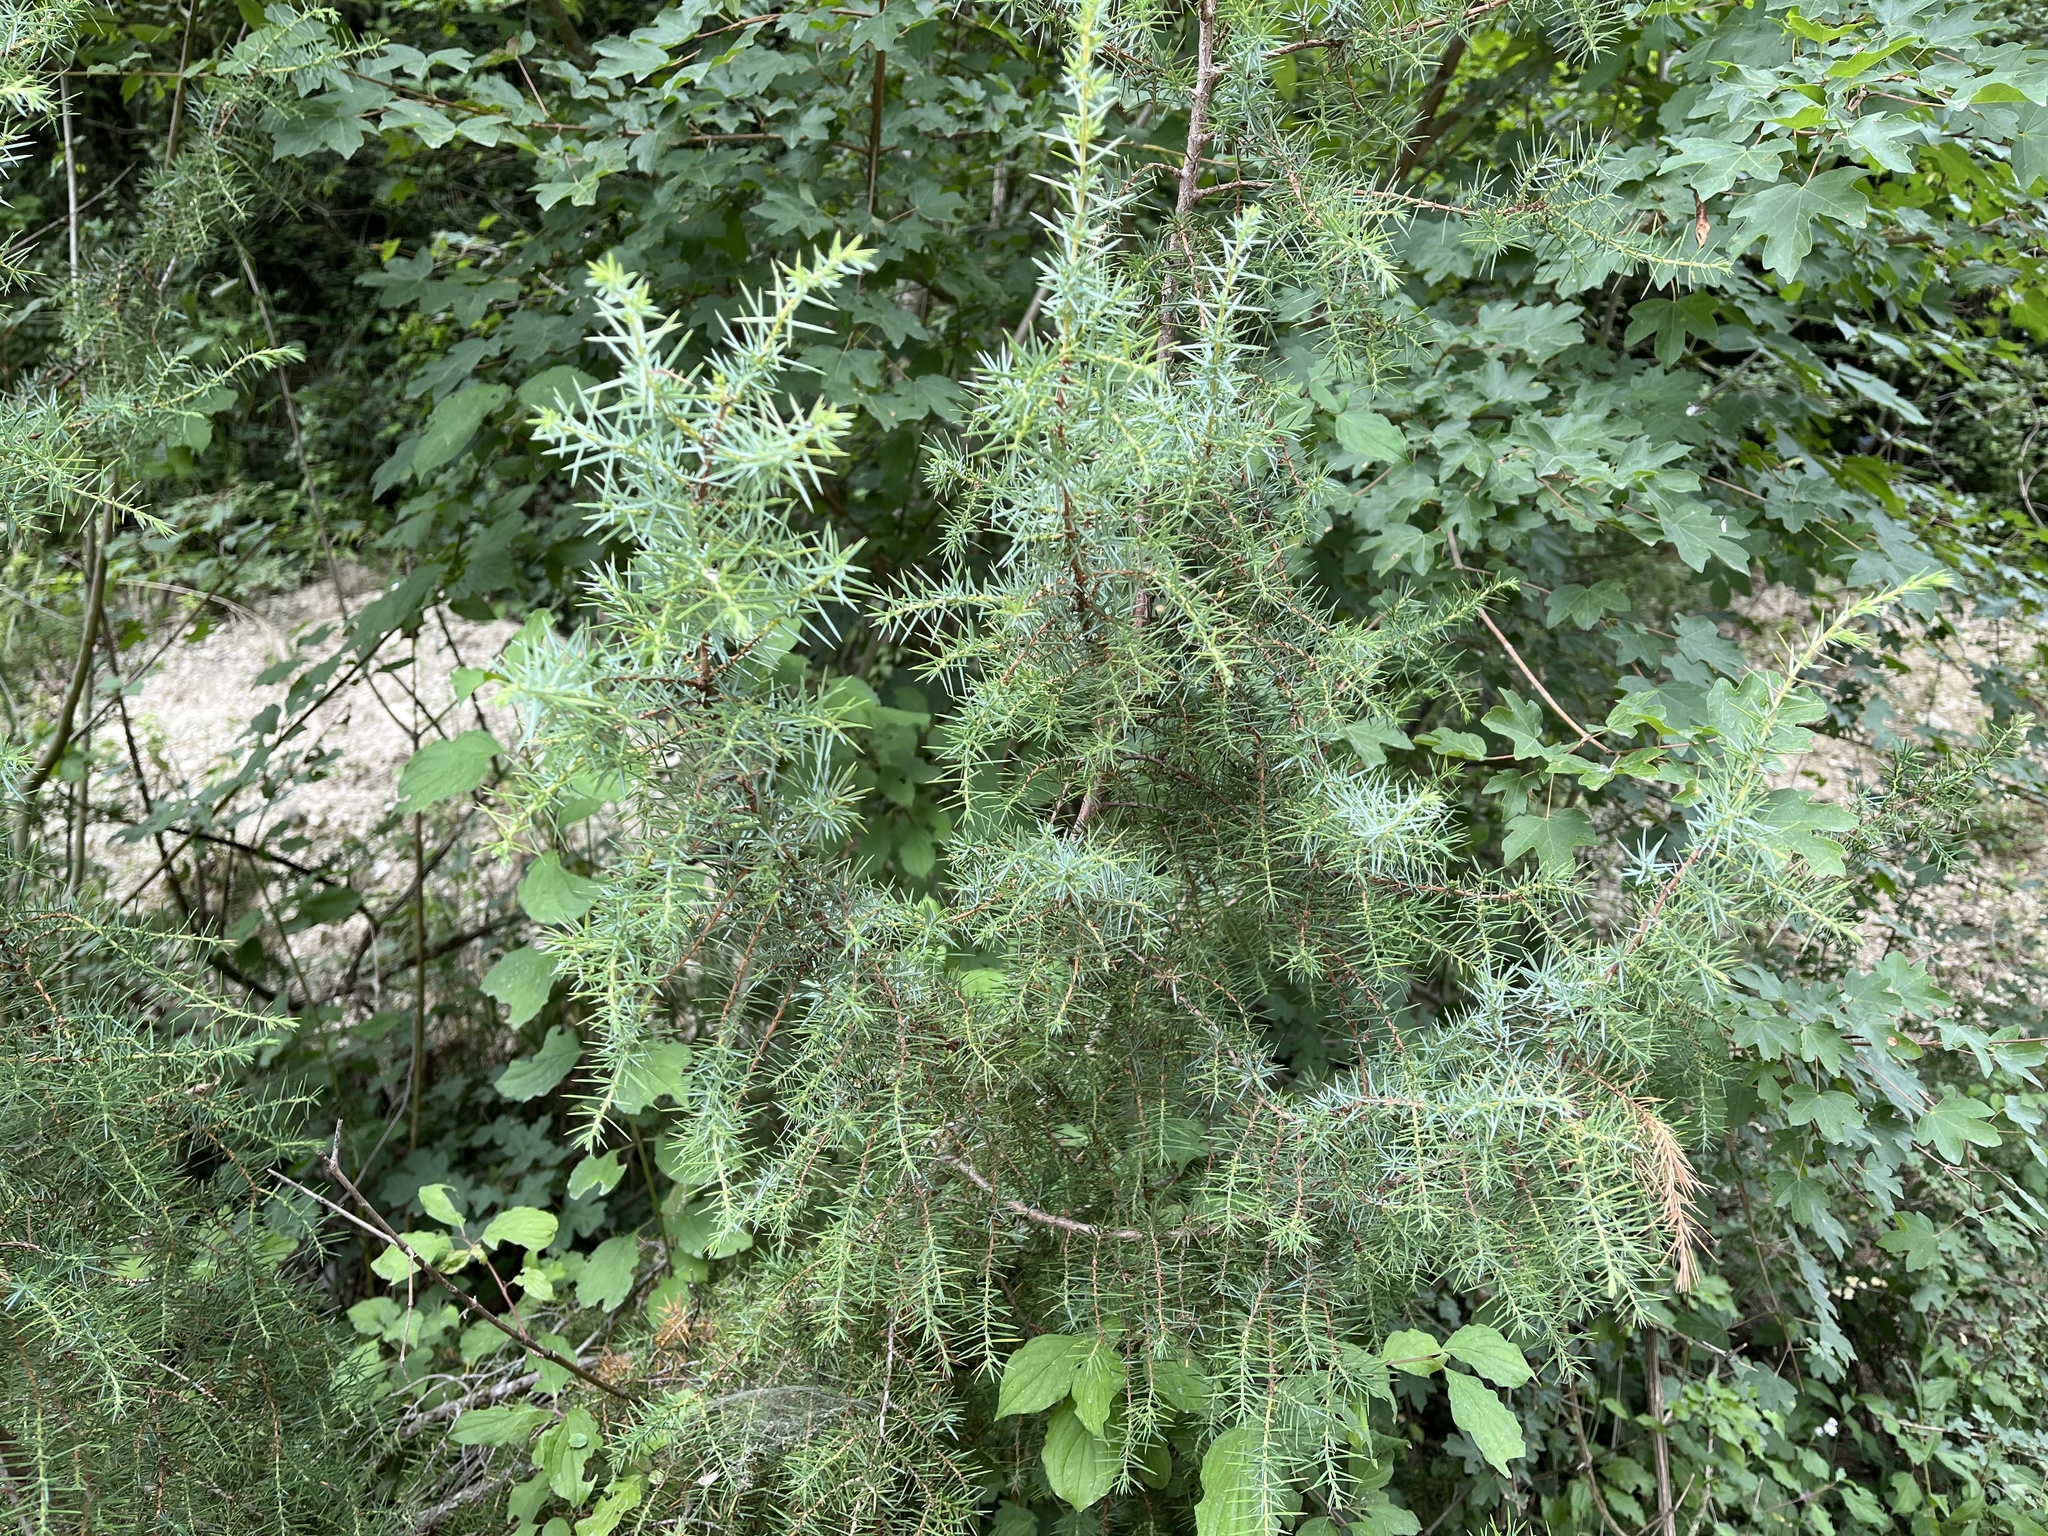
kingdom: Plantae
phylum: Tracheophyta
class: Pinopsida
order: Pinales
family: Cupressaceae
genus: Juniperus
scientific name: Juniperus communis
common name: Common juniper
